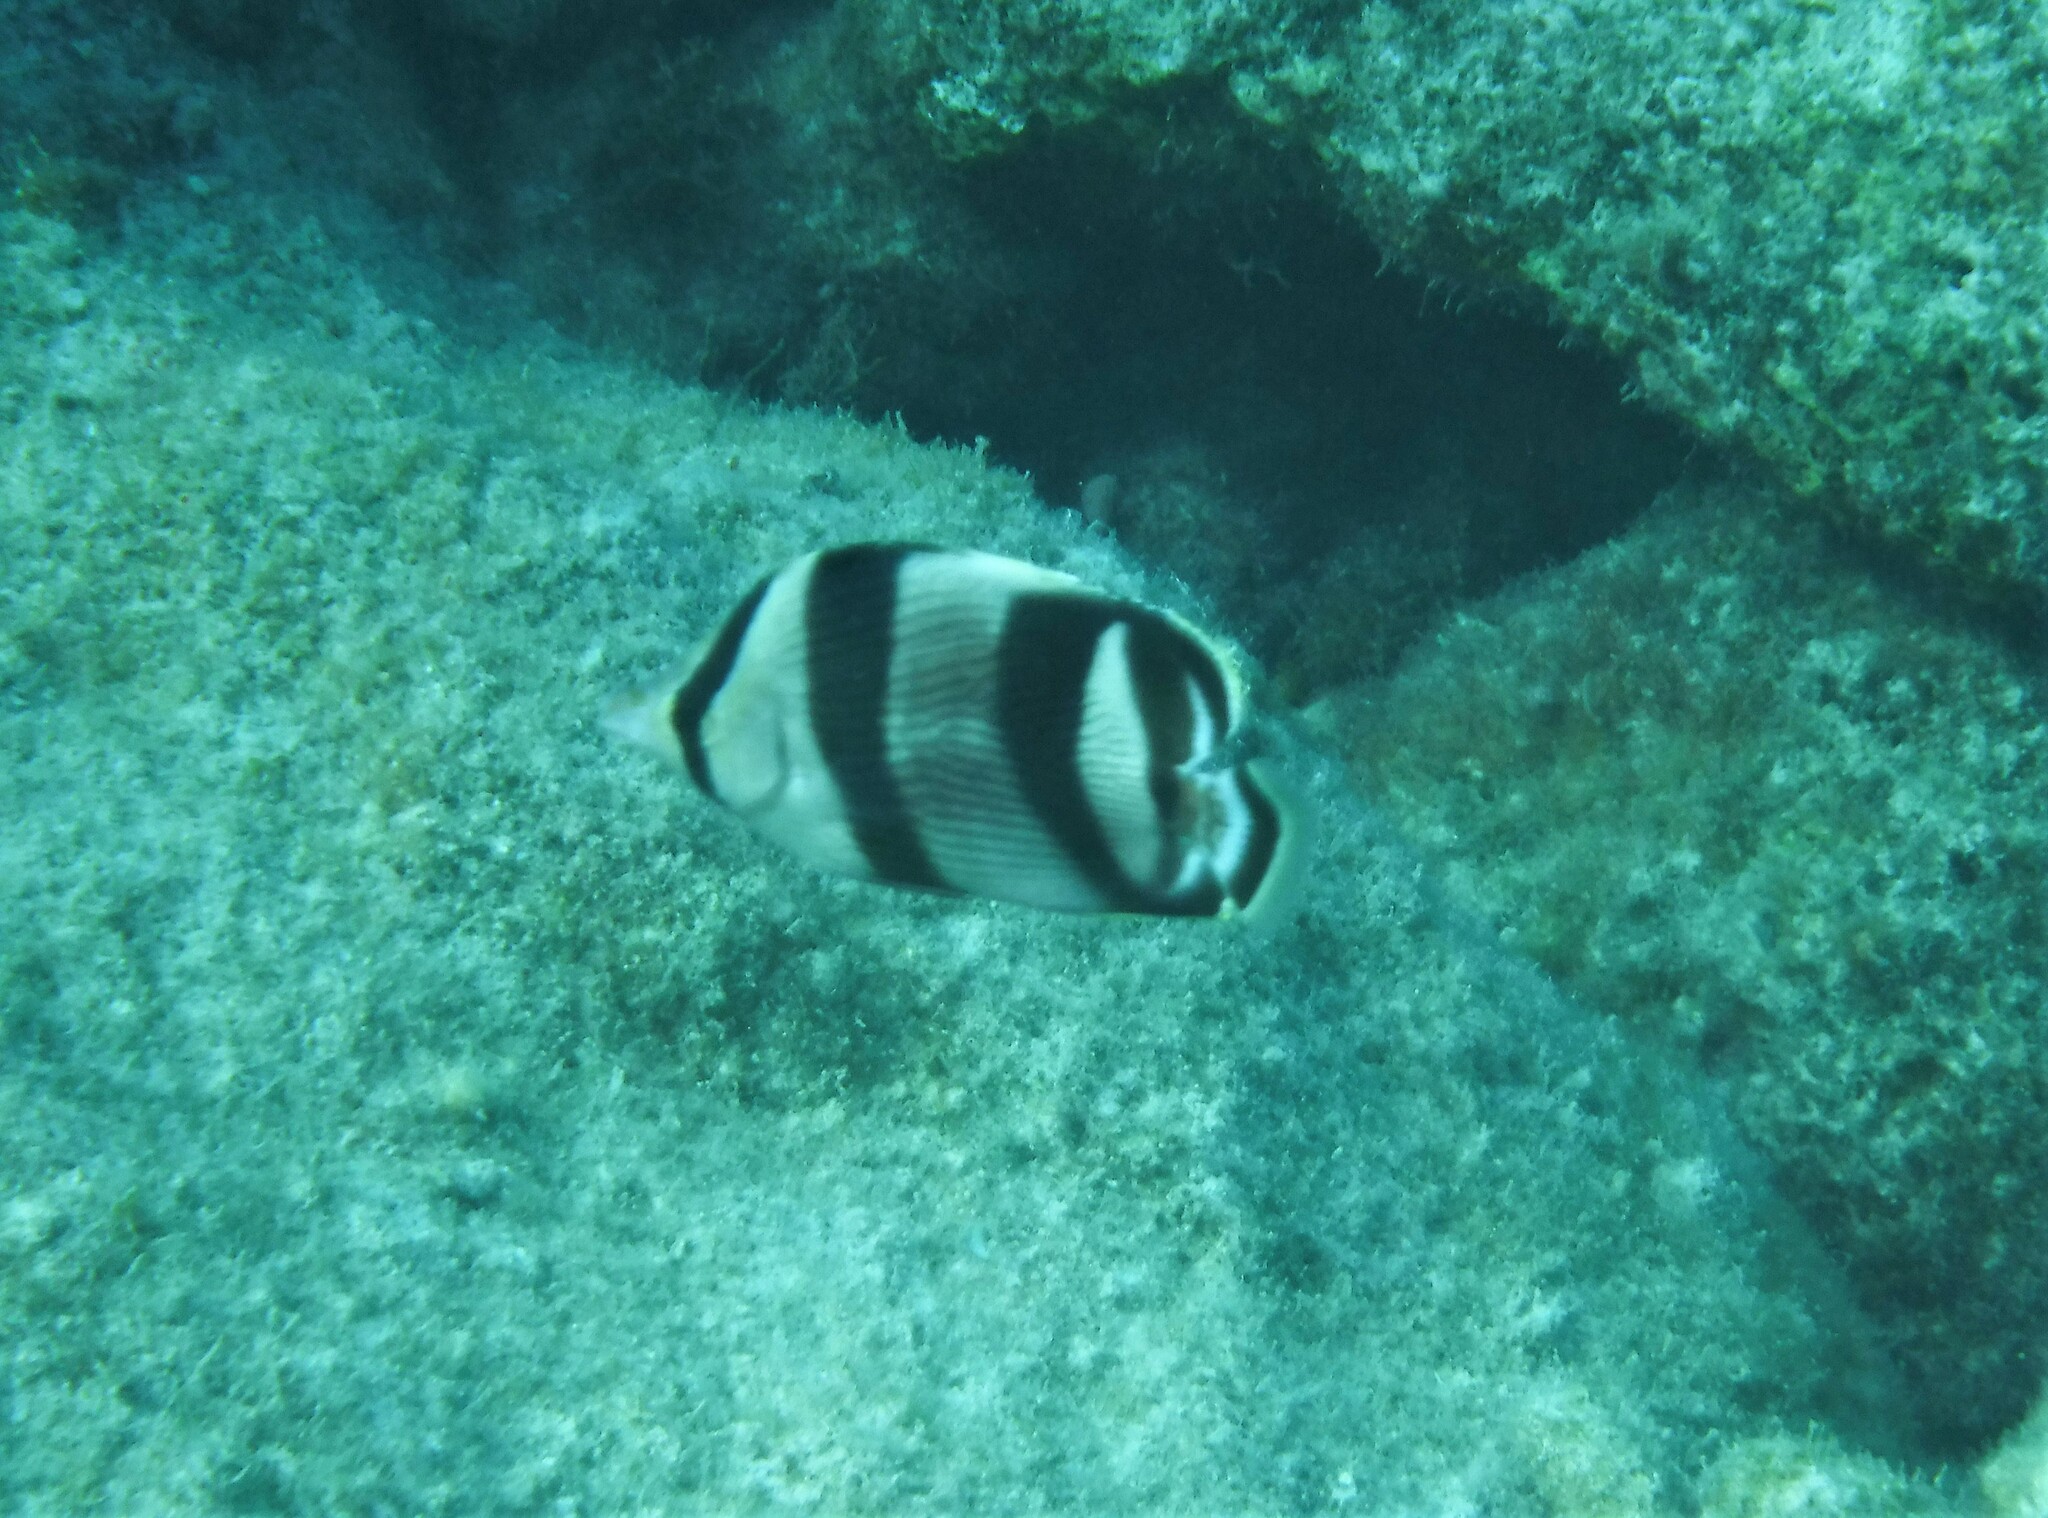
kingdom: Animalia
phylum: Chordata
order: Perciformes
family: Chaetodontidae
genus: Chaetodon
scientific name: Chaetodon striatus
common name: Banded butterflyfish
